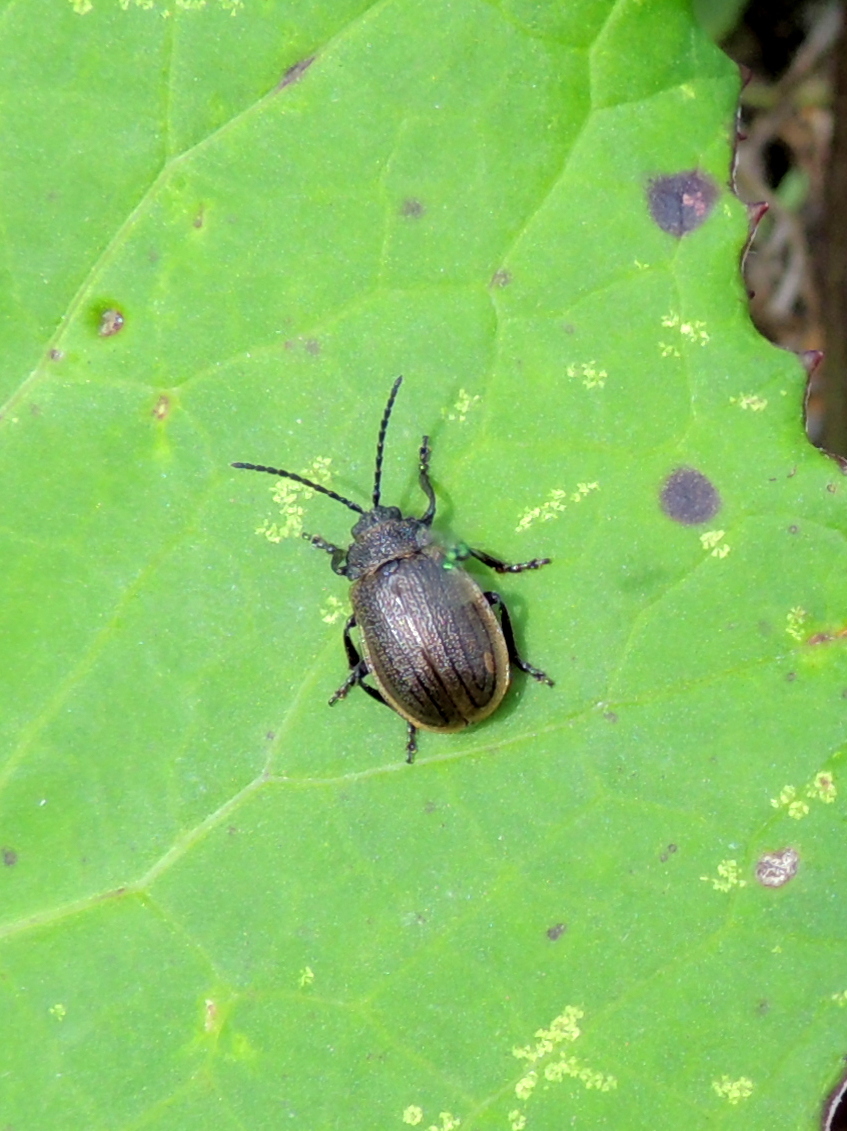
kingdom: Animalia
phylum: Arthropoda
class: Insecta
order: Coleoptera
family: Chrysomelidae
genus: Galeruca
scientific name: Galeruca pomonae
